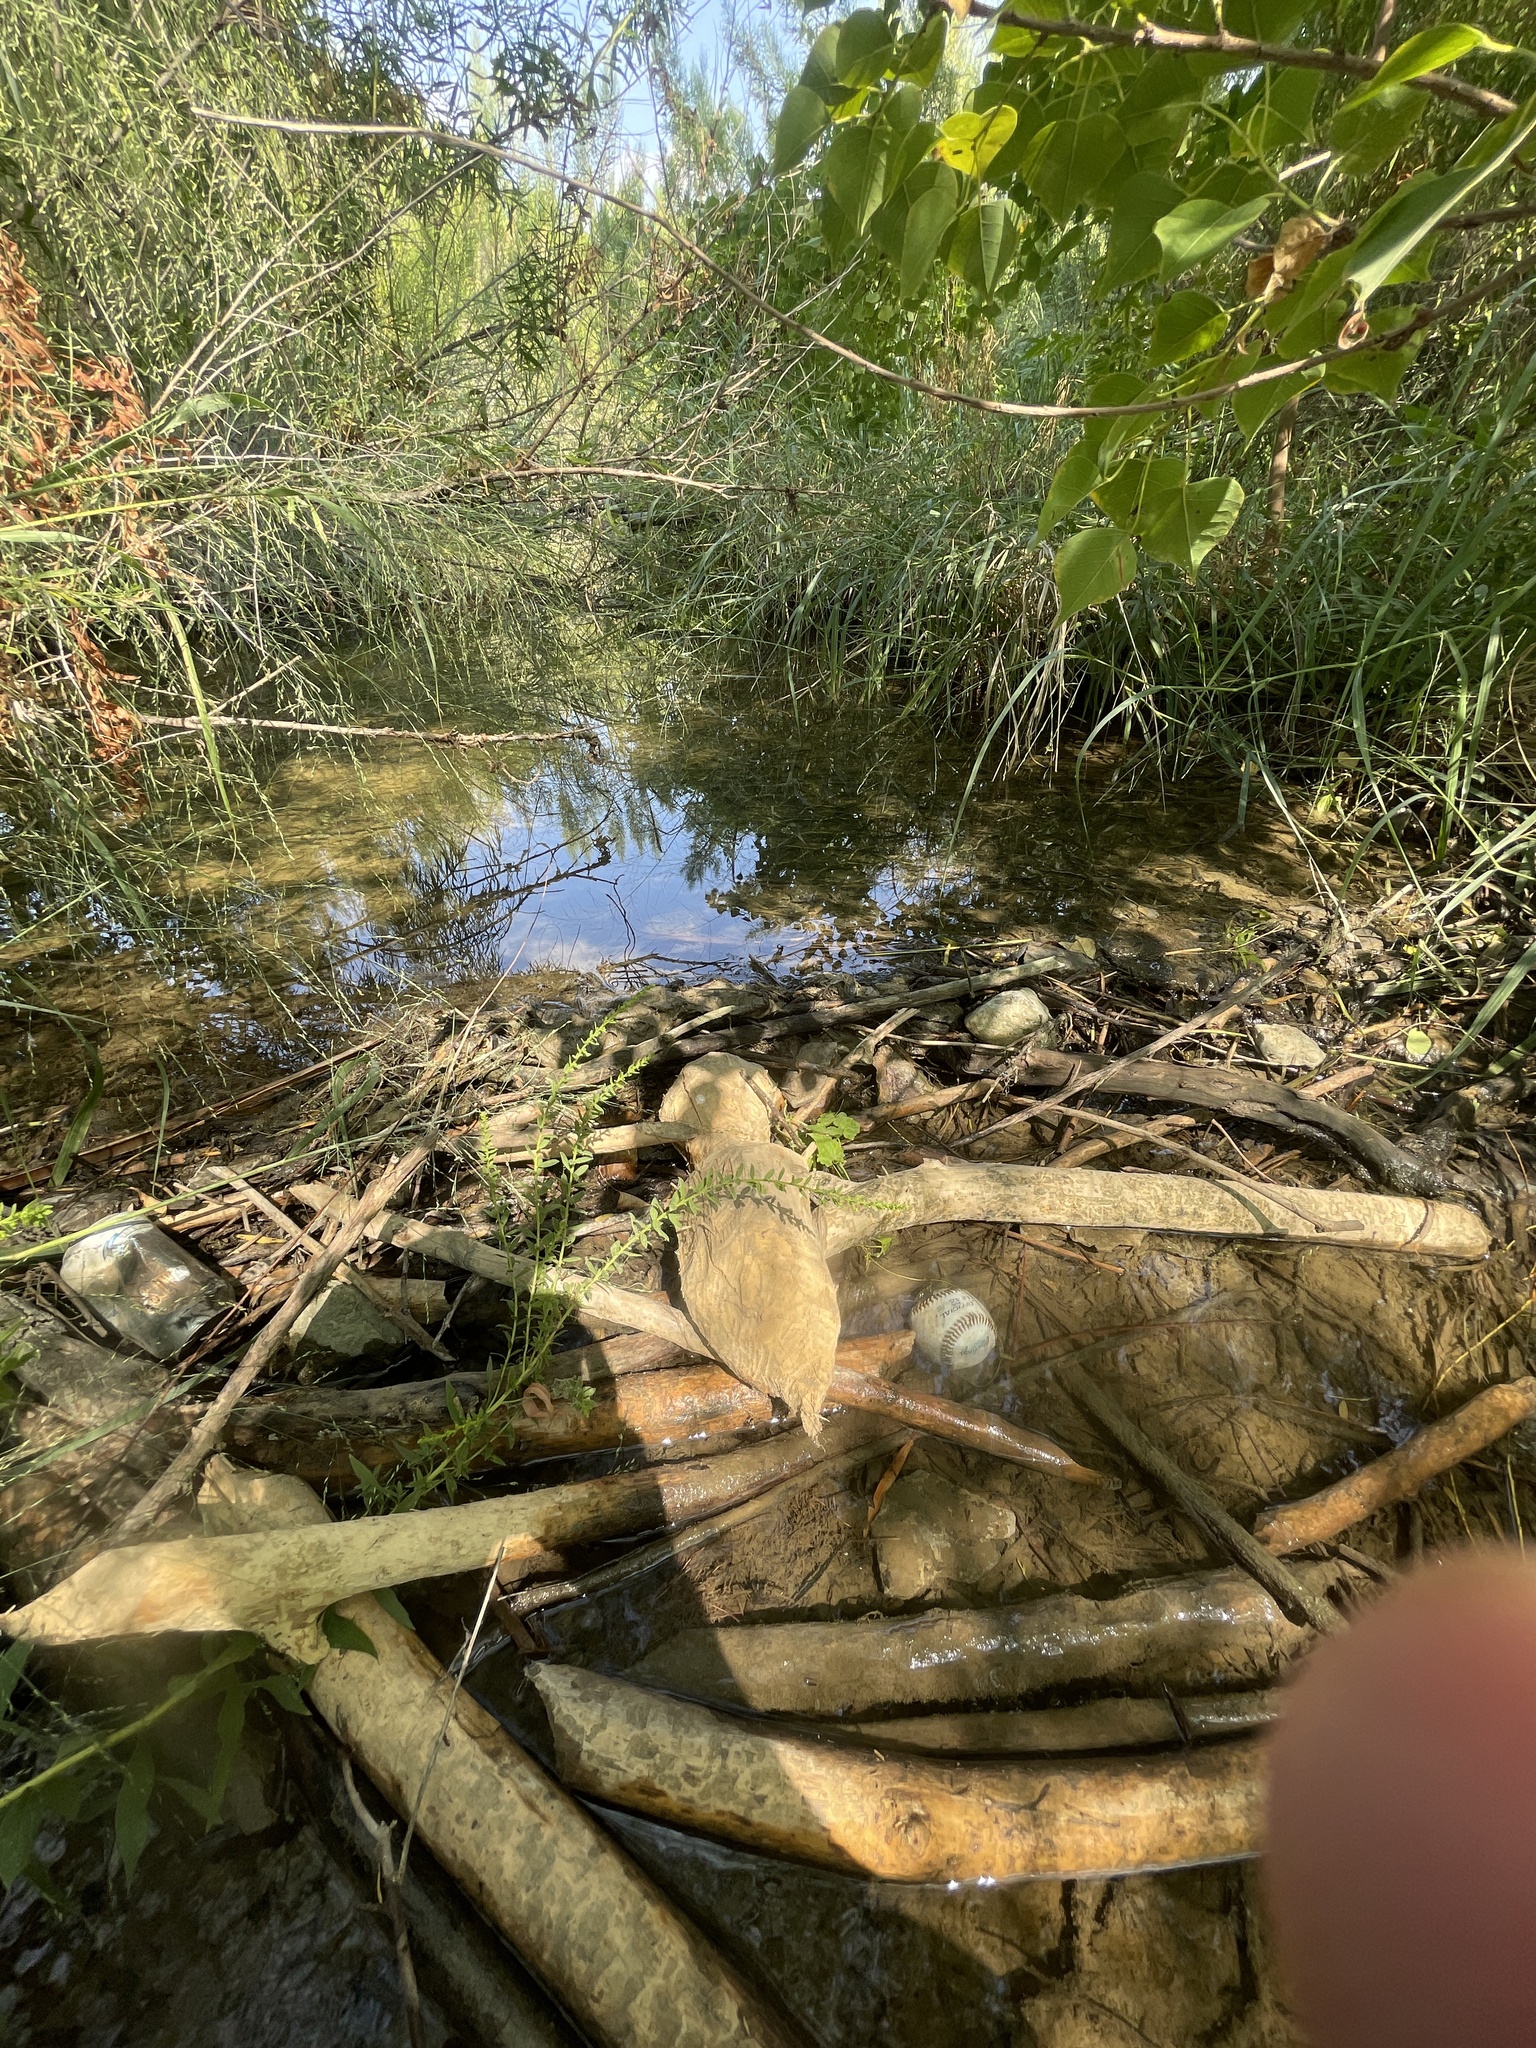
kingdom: Animalia
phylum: Chordata
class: Mammalia
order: Rodentia
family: Castoridae
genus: Castor
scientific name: Castor canadensis
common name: American beaver
